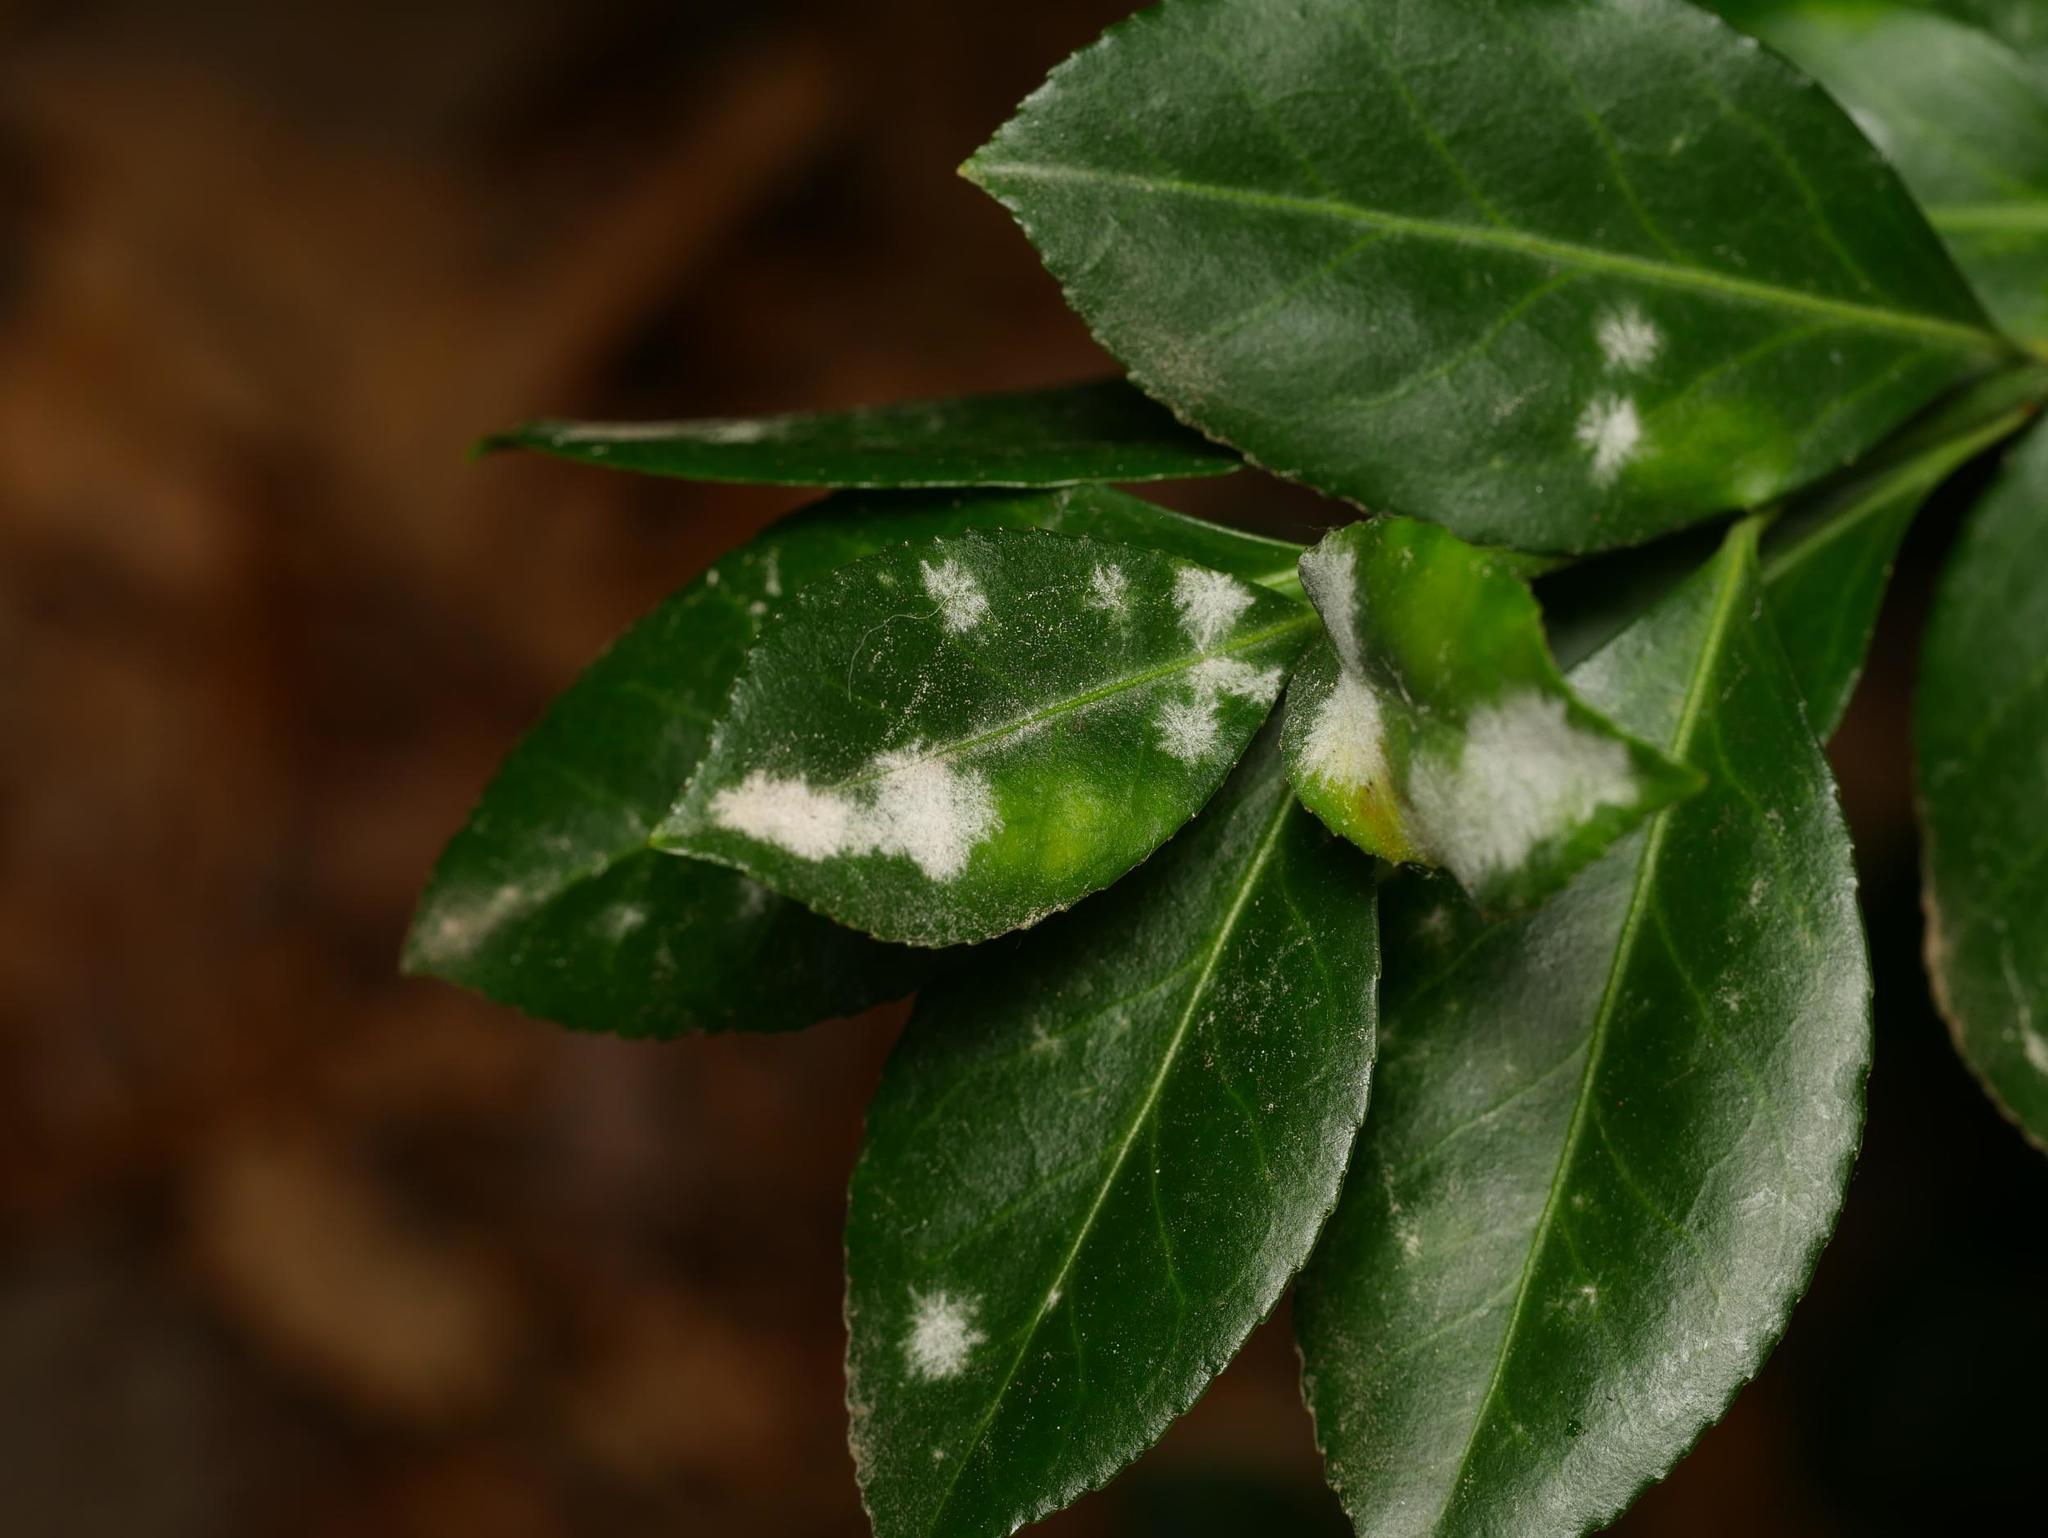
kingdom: Fungi
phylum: Ascomycota
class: Leotiomycetes
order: Helotiales
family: Erysiphaceae
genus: Erysiphe
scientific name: Erysiphe euonymicola
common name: Spindletree mildew
